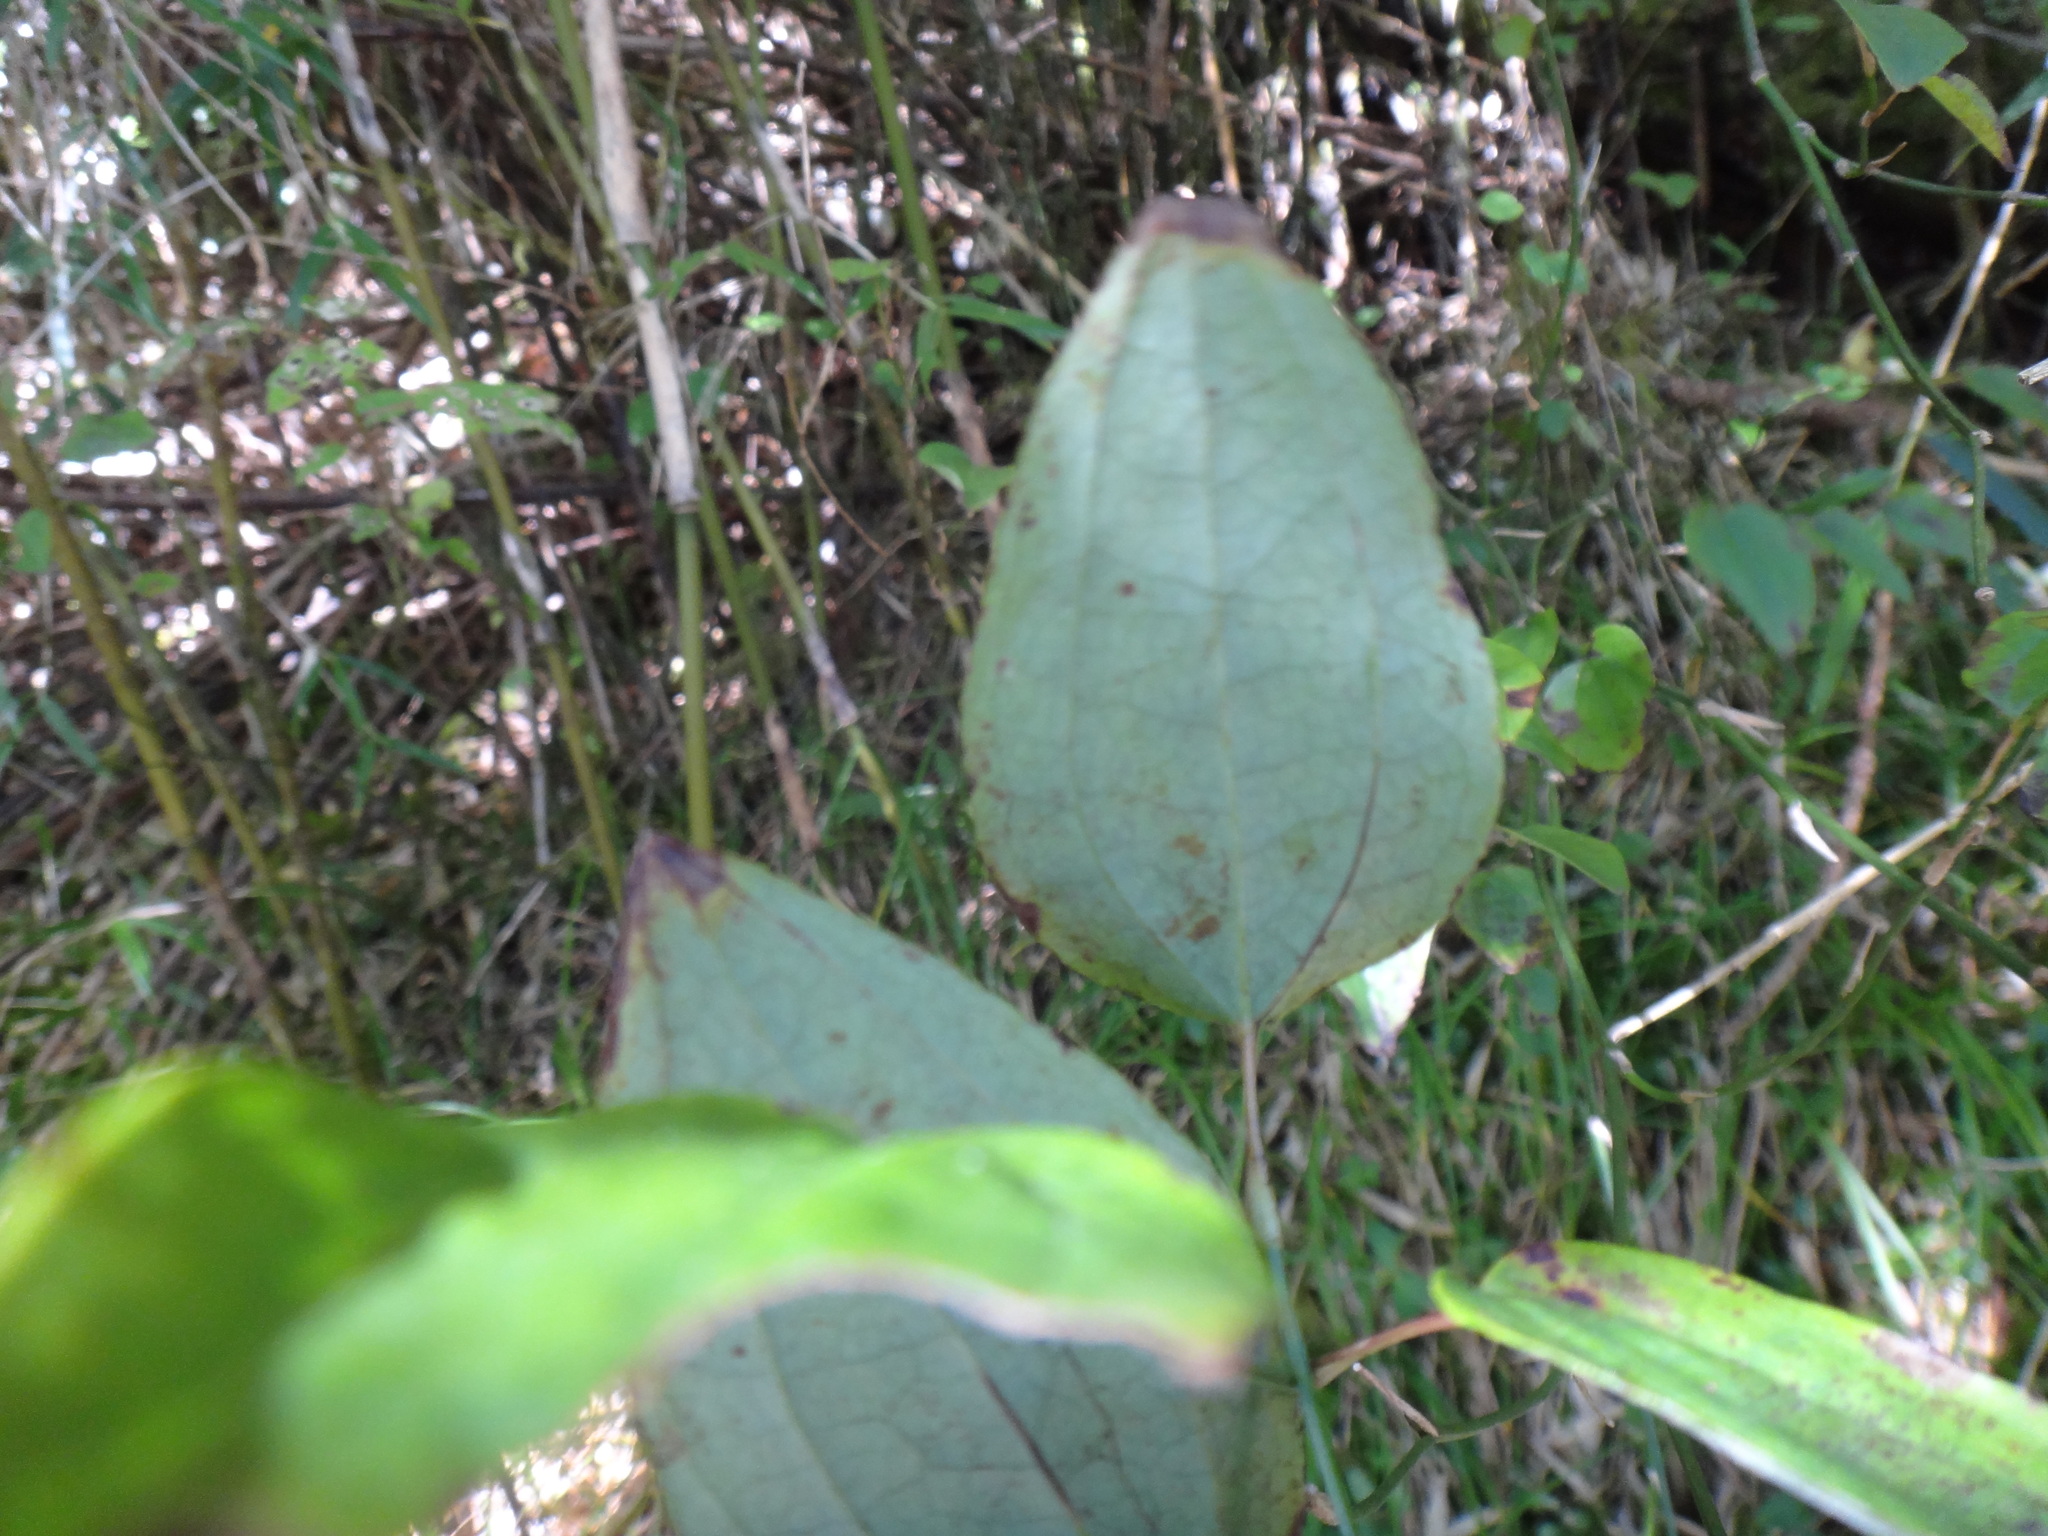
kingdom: Plantae
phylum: Tracheophyta
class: Liliopsida
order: Liliales
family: Smilacaceae
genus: Smilax
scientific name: Smilax vaginata
